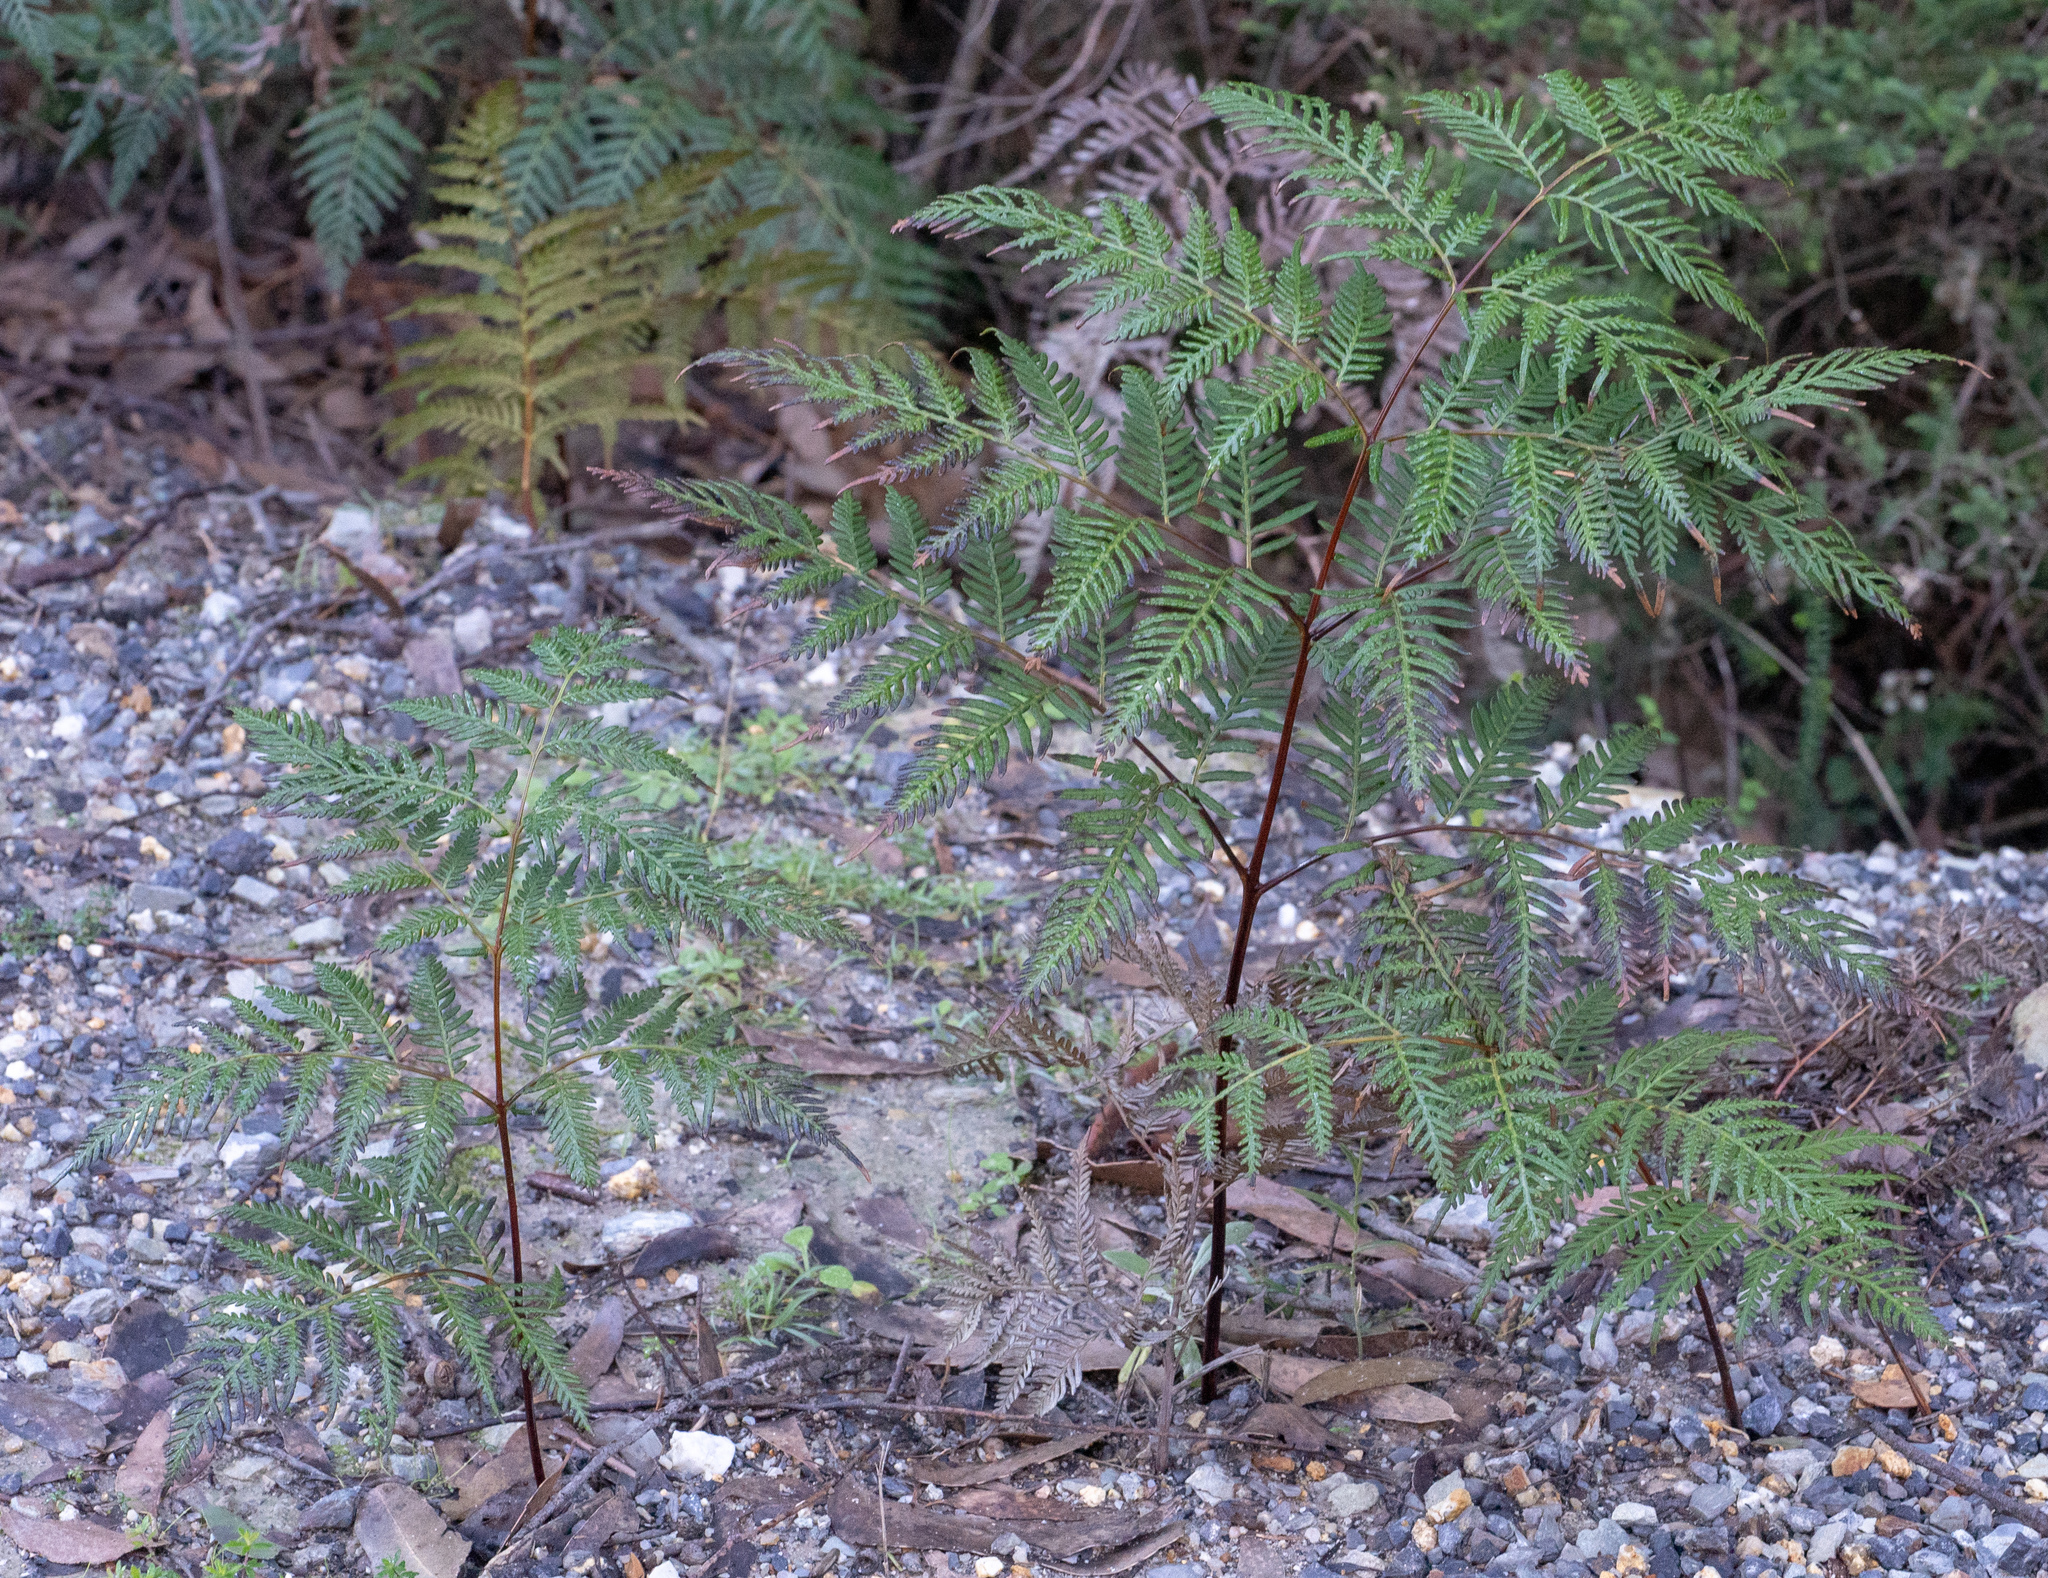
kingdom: Plantae
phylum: Tracheophyta
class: Polypodiopsida
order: Polypodiales
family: Dennstaedtiaceae
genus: Pteridium
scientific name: Pteridium esculentum
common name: Bracken fern
